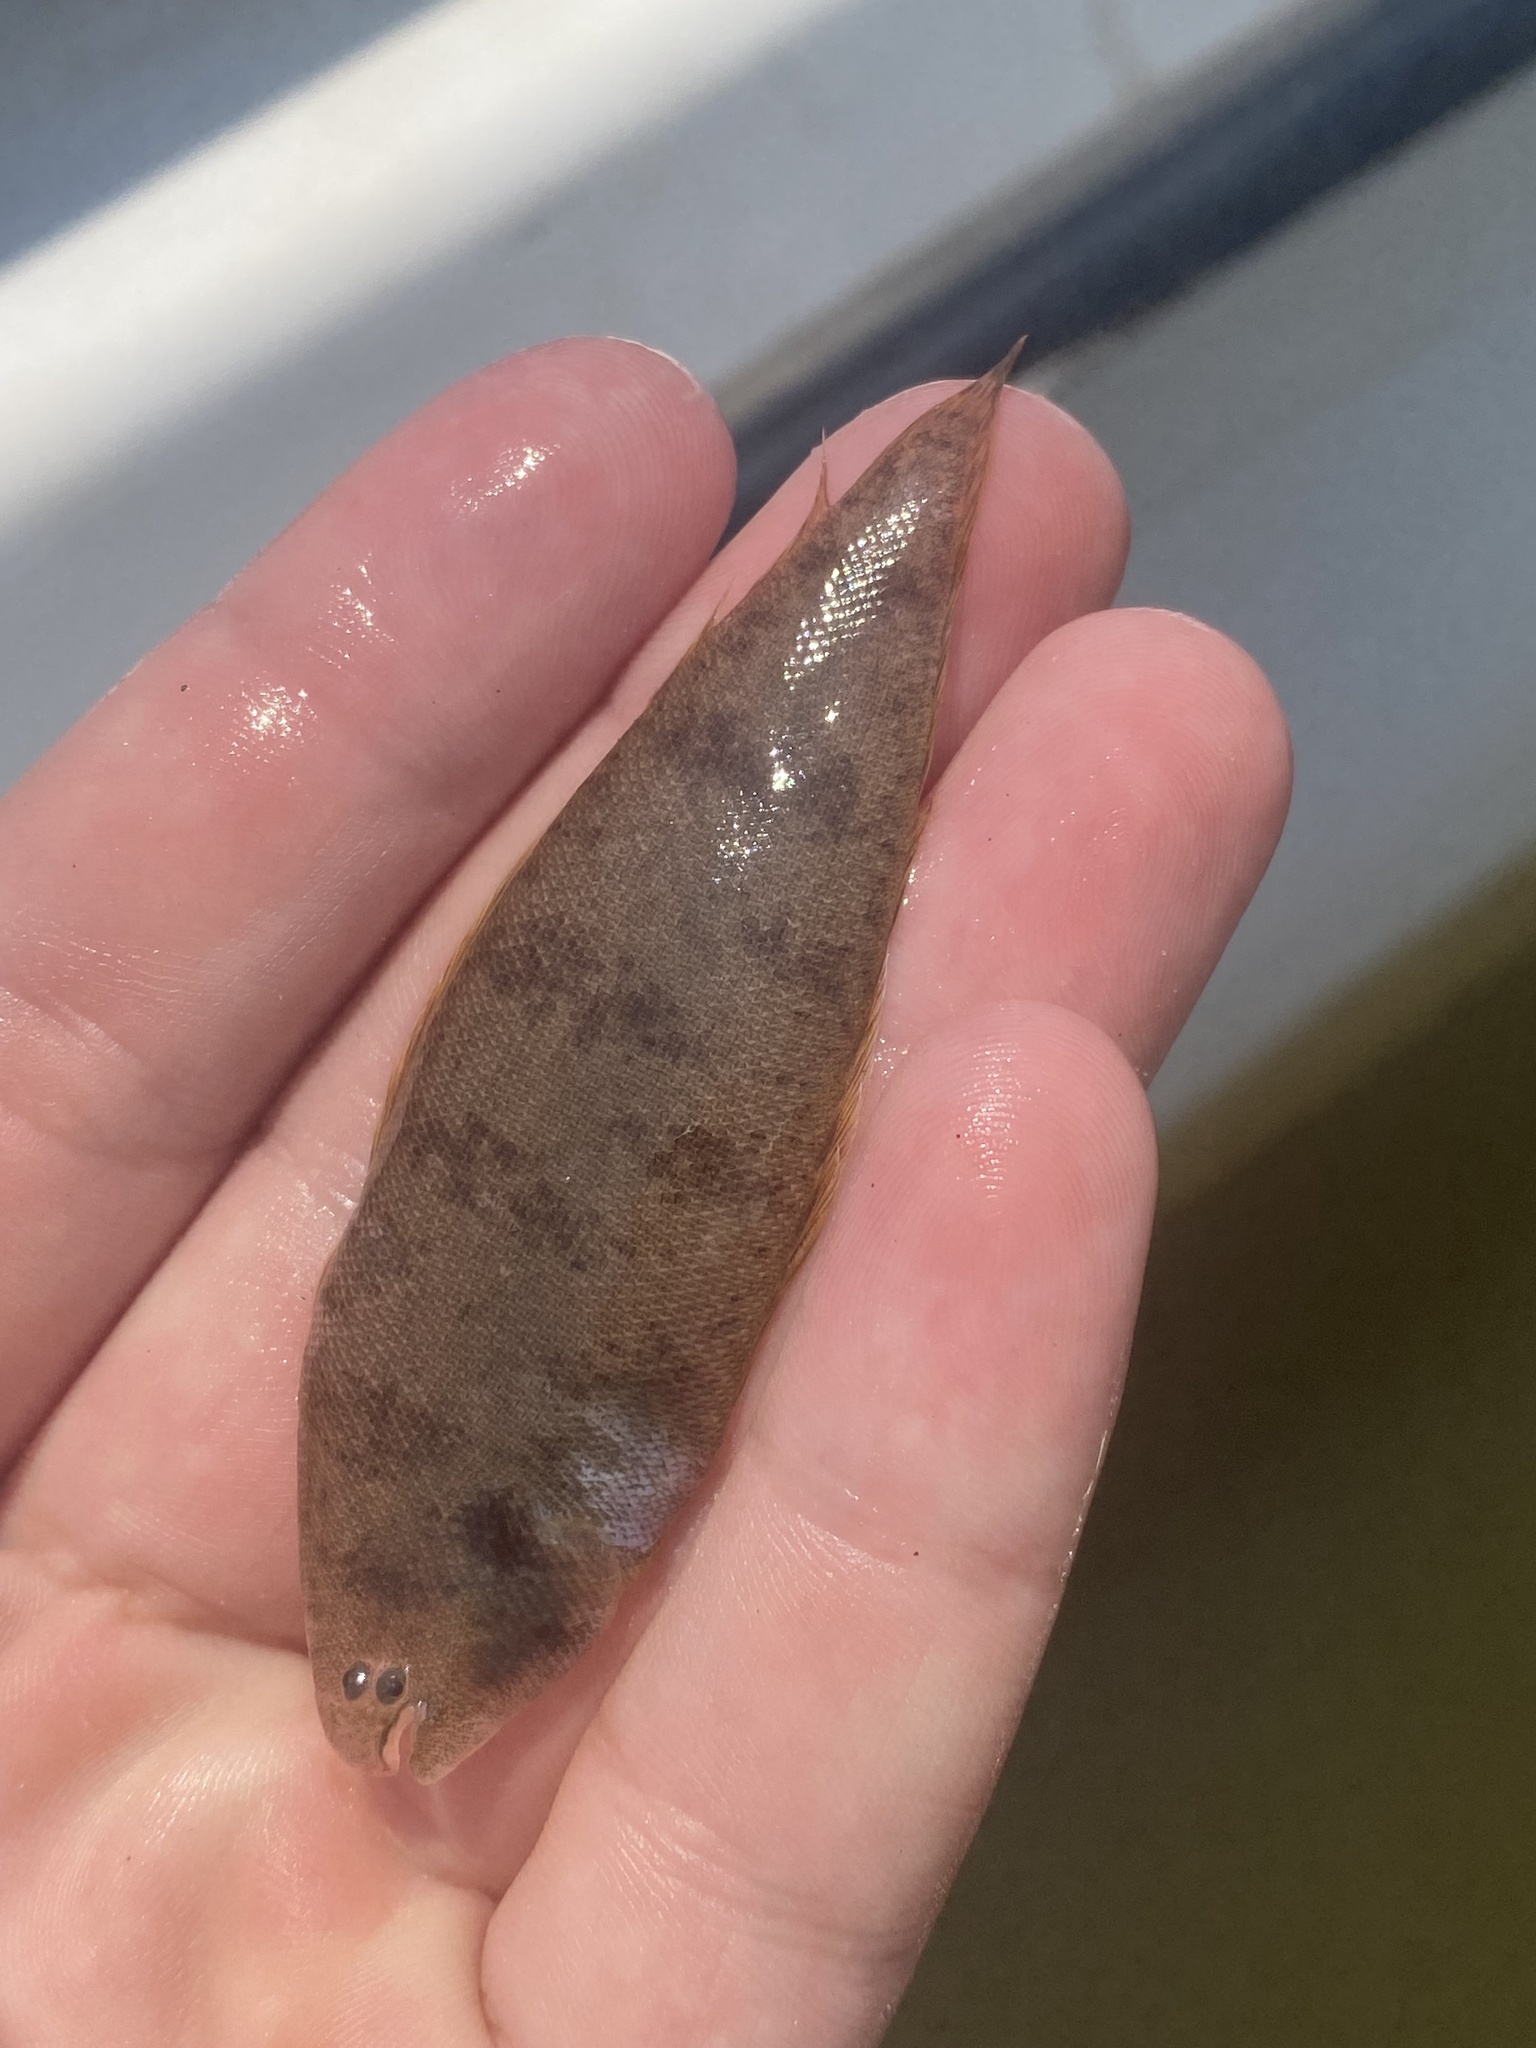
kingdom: Animalia
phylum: Chordata
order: Pleuronectiformes
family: Cynoglossidae
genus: Symphurus
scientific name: Symphurus plagiusa
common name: Blackcheek tonguefish
